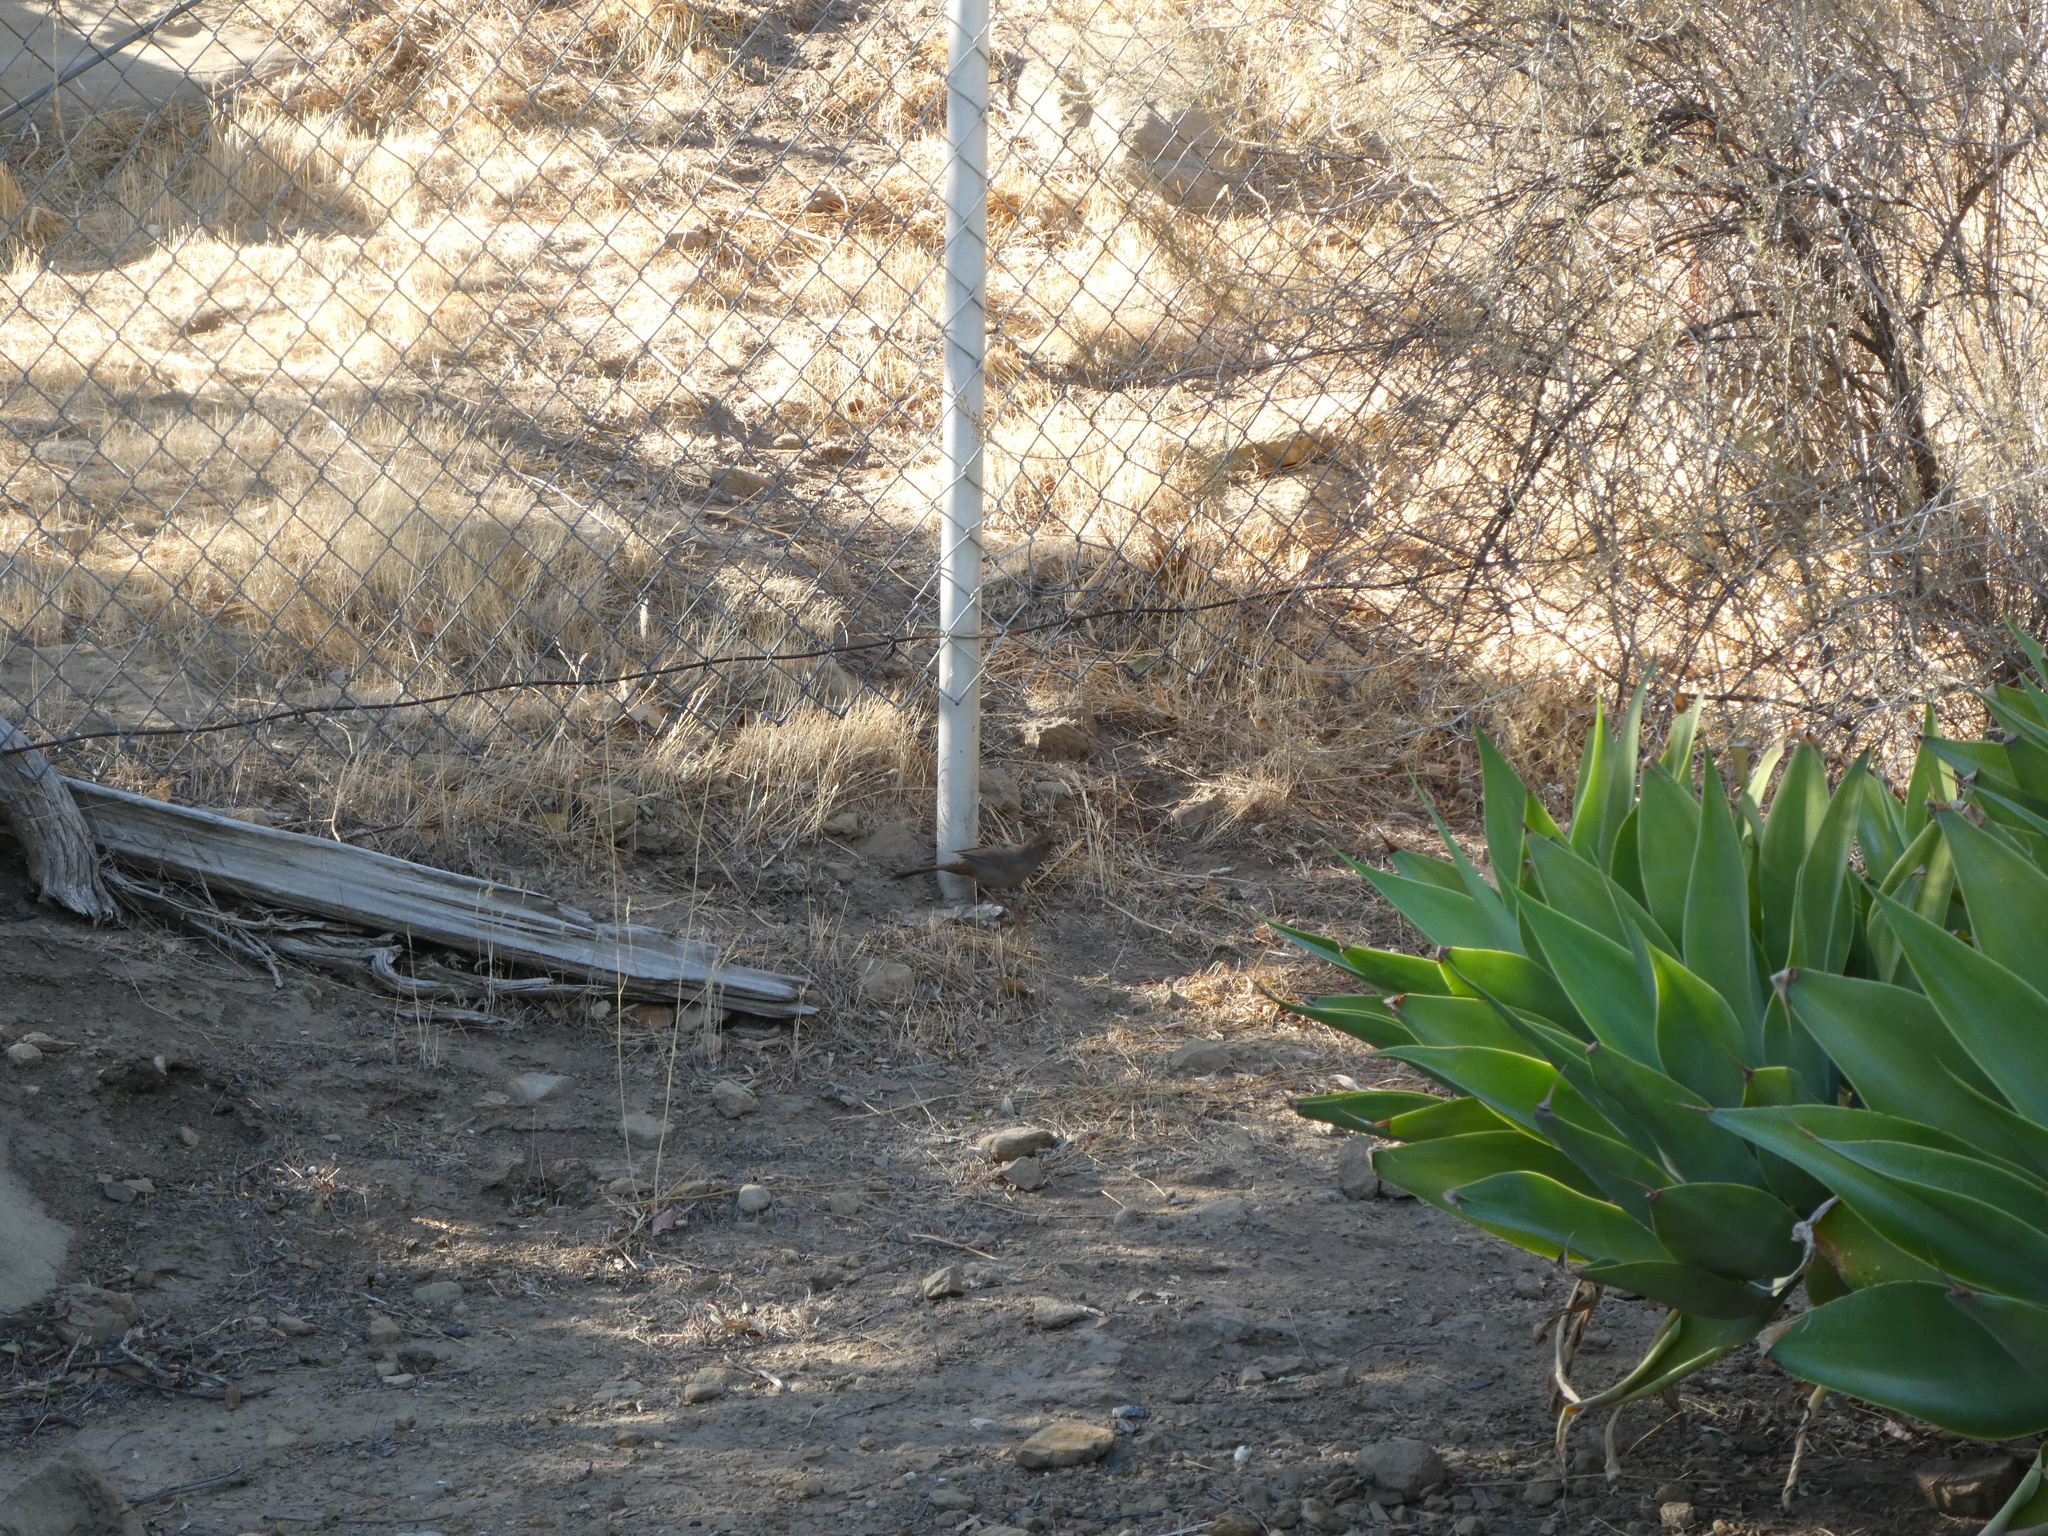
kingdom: Animalia
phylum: Chordata
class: Aves
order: Passeriformes
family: Passerellidae
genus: Melozone
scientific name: Melozone crissalis
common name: California towhee
